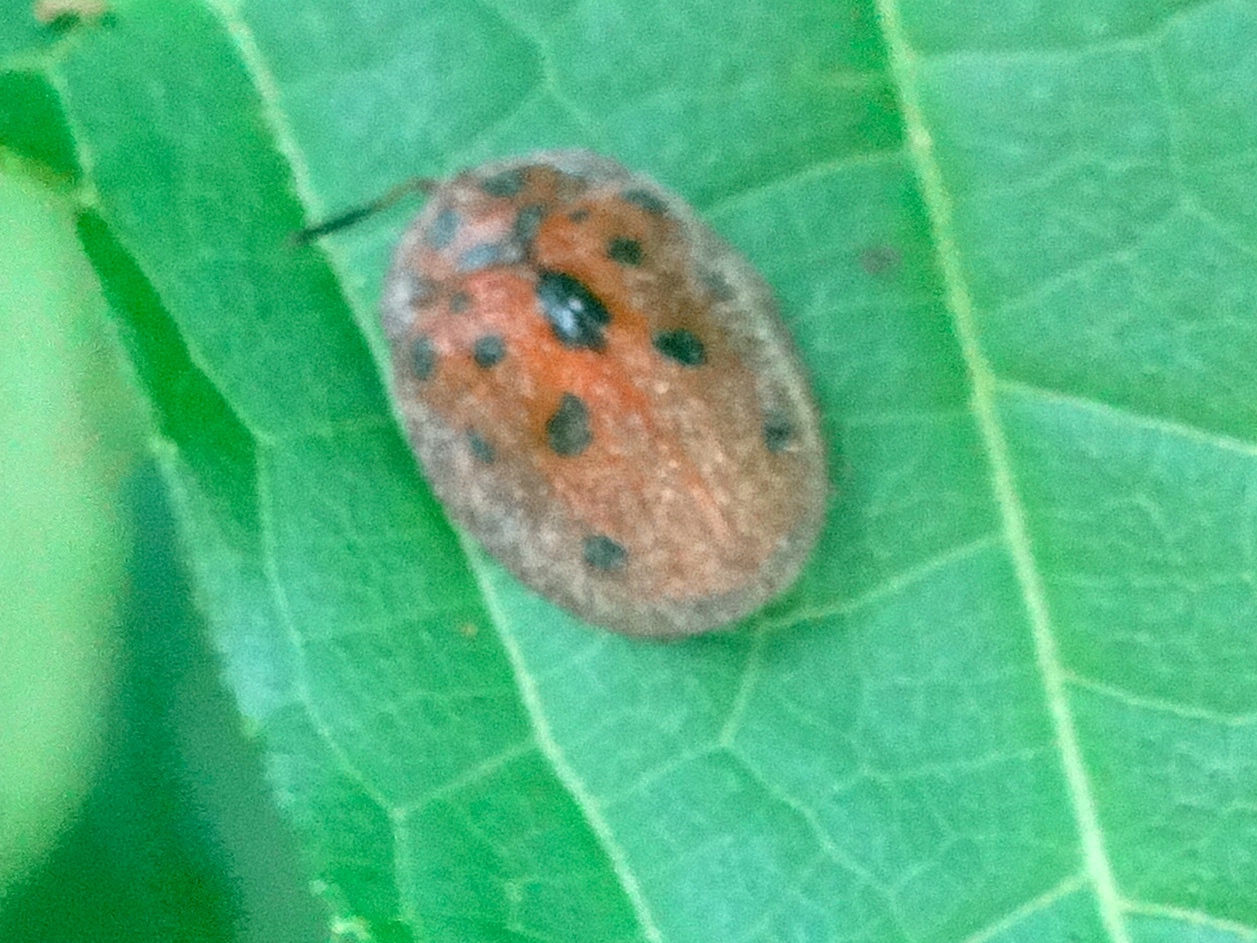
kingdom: Animalia
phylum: Arthropoda
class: Insecta
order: Coleoptera
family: Chrysomelidae
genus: Chelymorpha
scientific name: Chelymorpha
